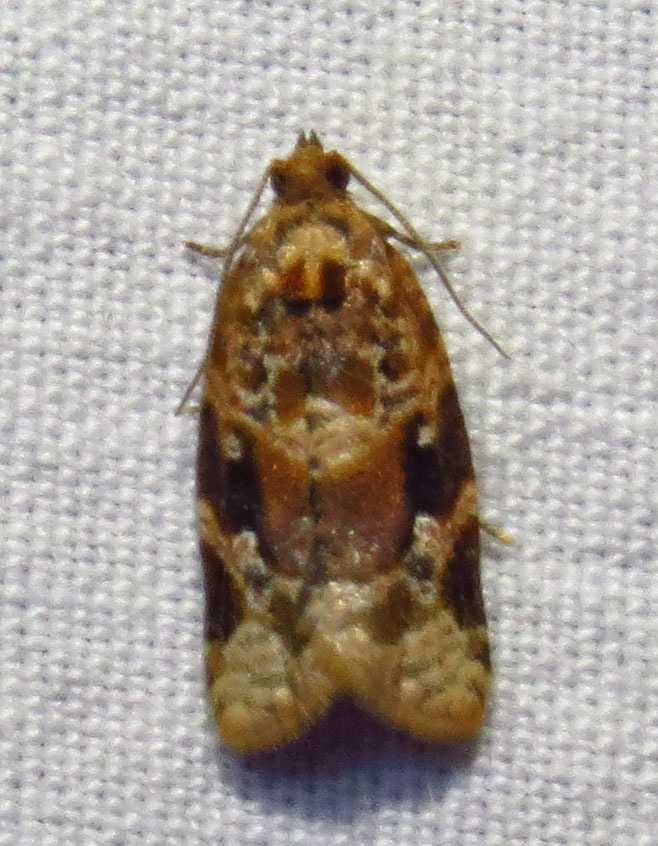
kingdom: Animalia
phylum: Arthropoda
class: Insecta
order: Lepidoptera
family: Tortricidae
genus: Argyrotaenia
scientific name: Argyrotaenia velutinana
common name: Red-banded leafroller moth
